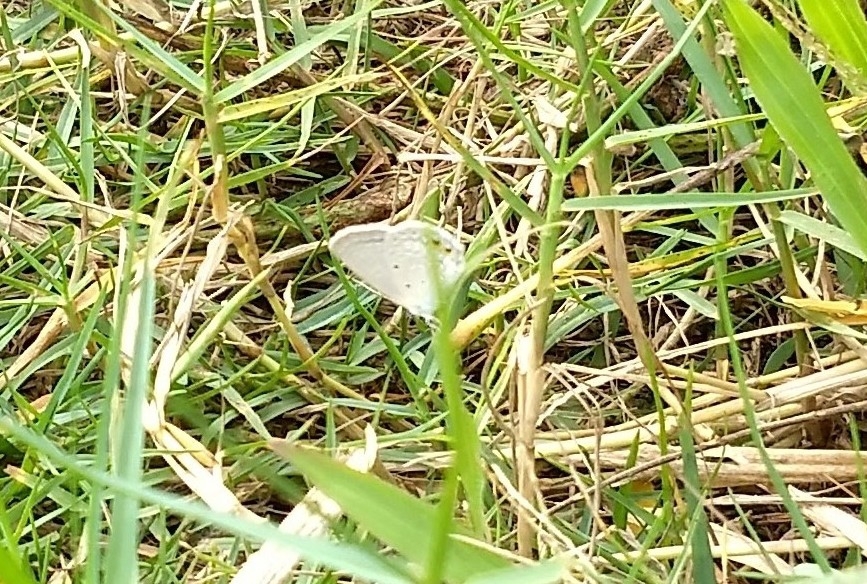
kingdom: Animalia
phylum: Arthropoda
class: Insecta
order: Lepidoptera
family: Lycaenidae
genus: Everes
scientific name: Everes lacturnus
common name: Orange-tipped pea-blue
